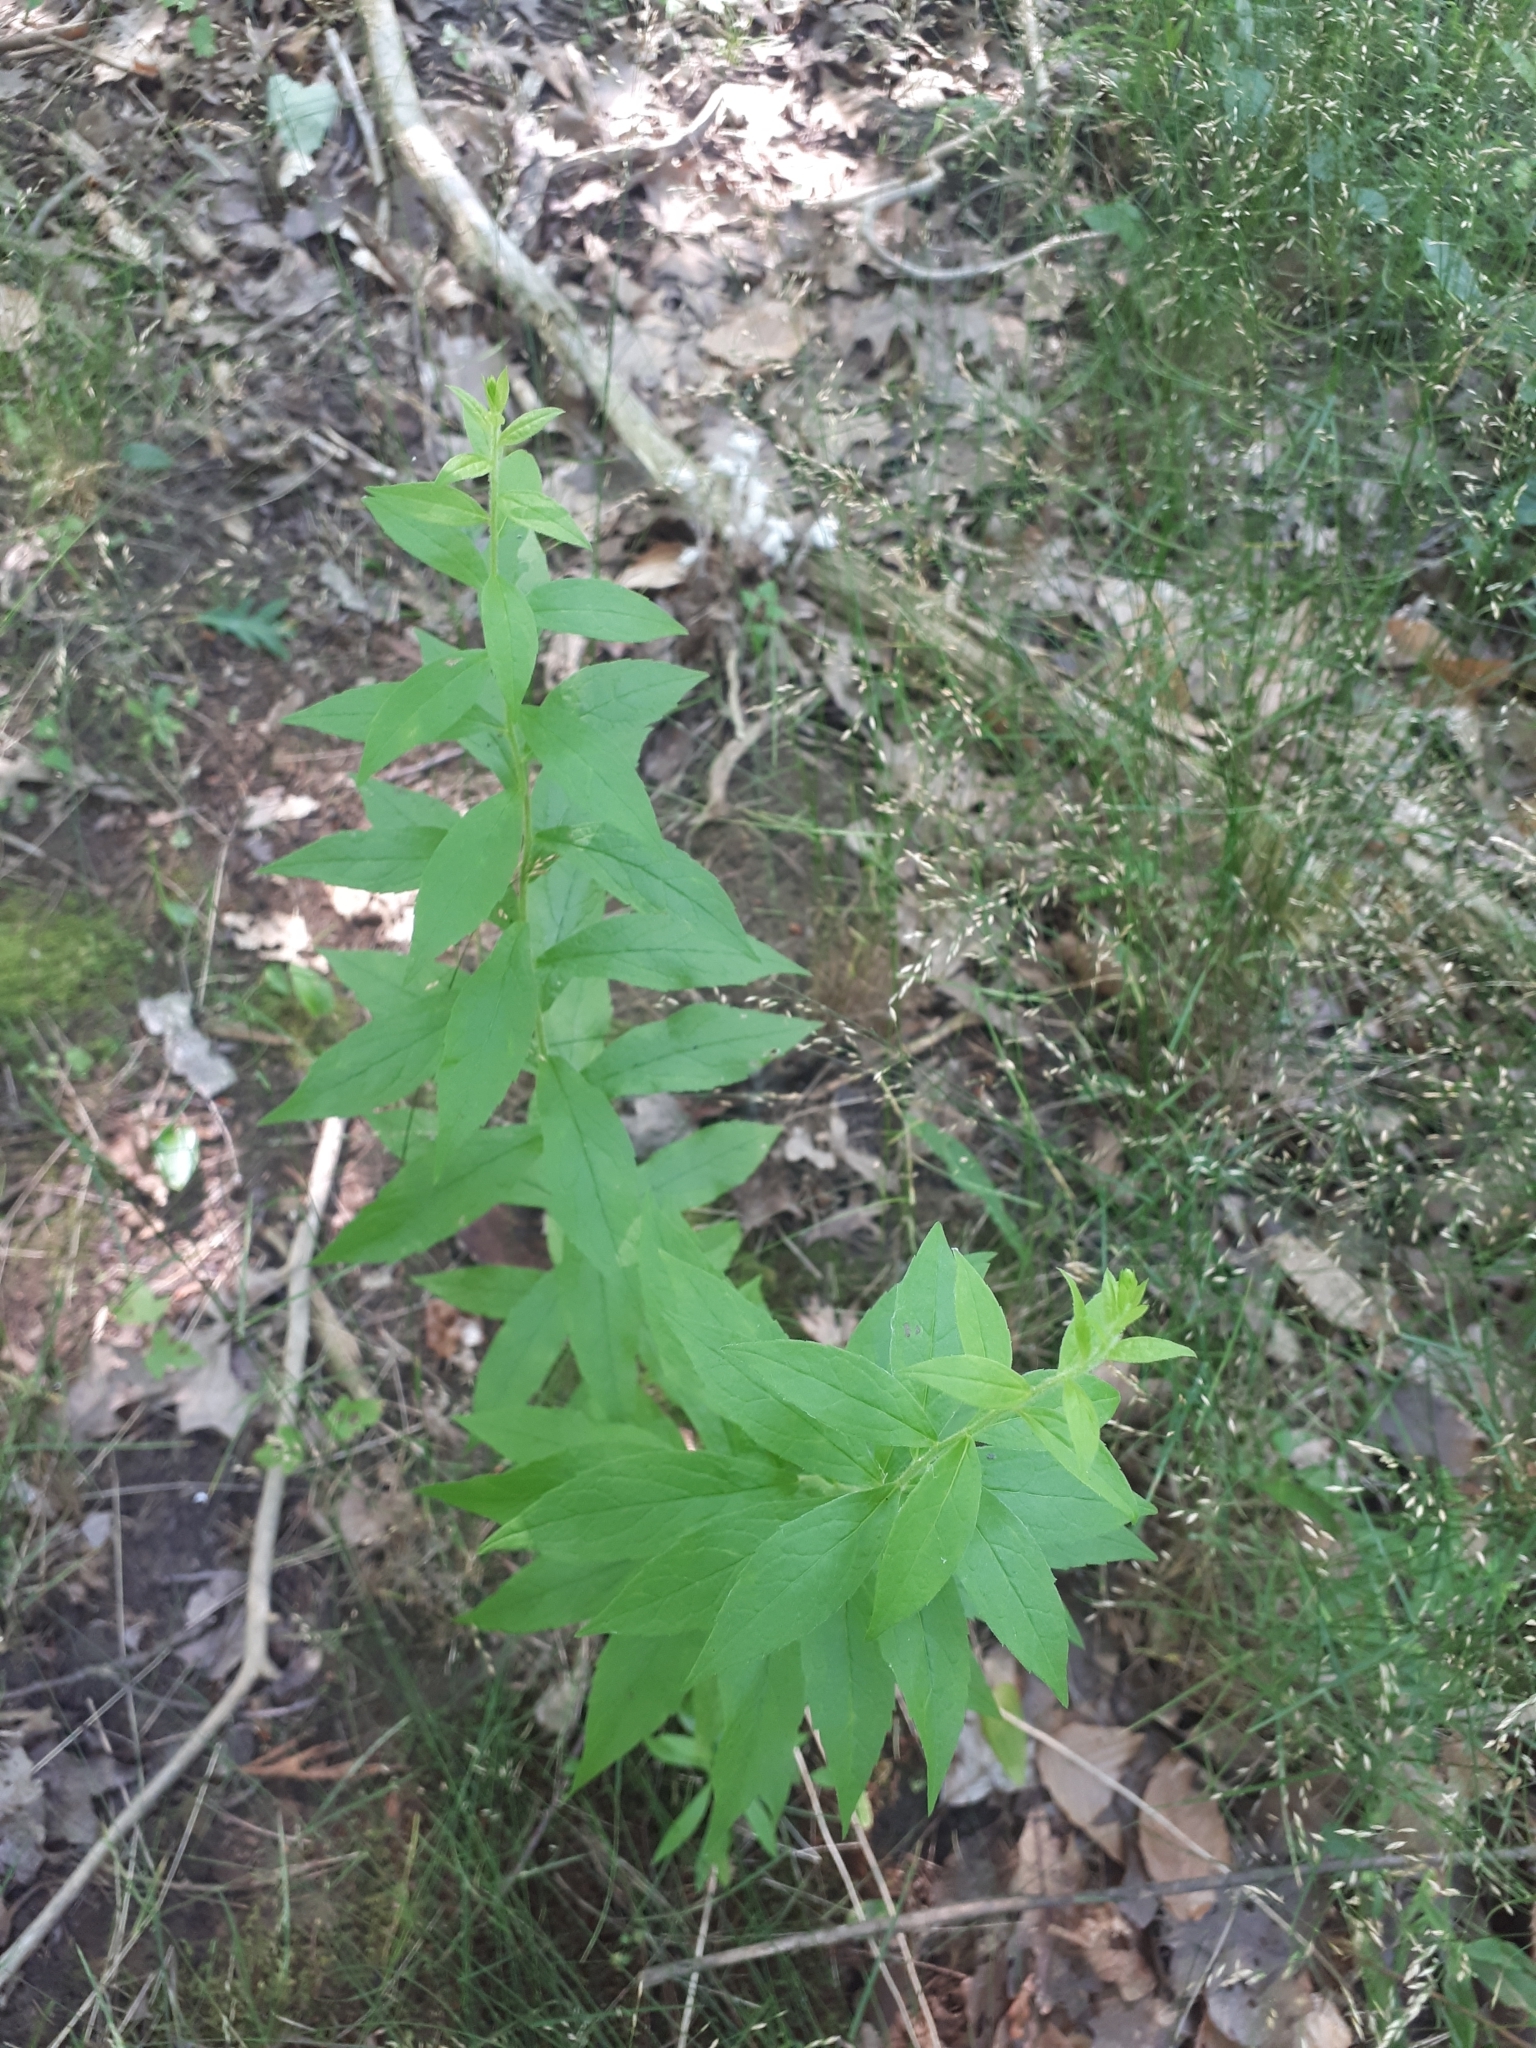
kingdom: Plantae
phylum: Tracheophyta
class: Magnoliopsida
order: Asterales
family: Asteraceae
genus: Solidago
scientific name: Solidago rugosa
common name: Rough-stemmed goldenrod
